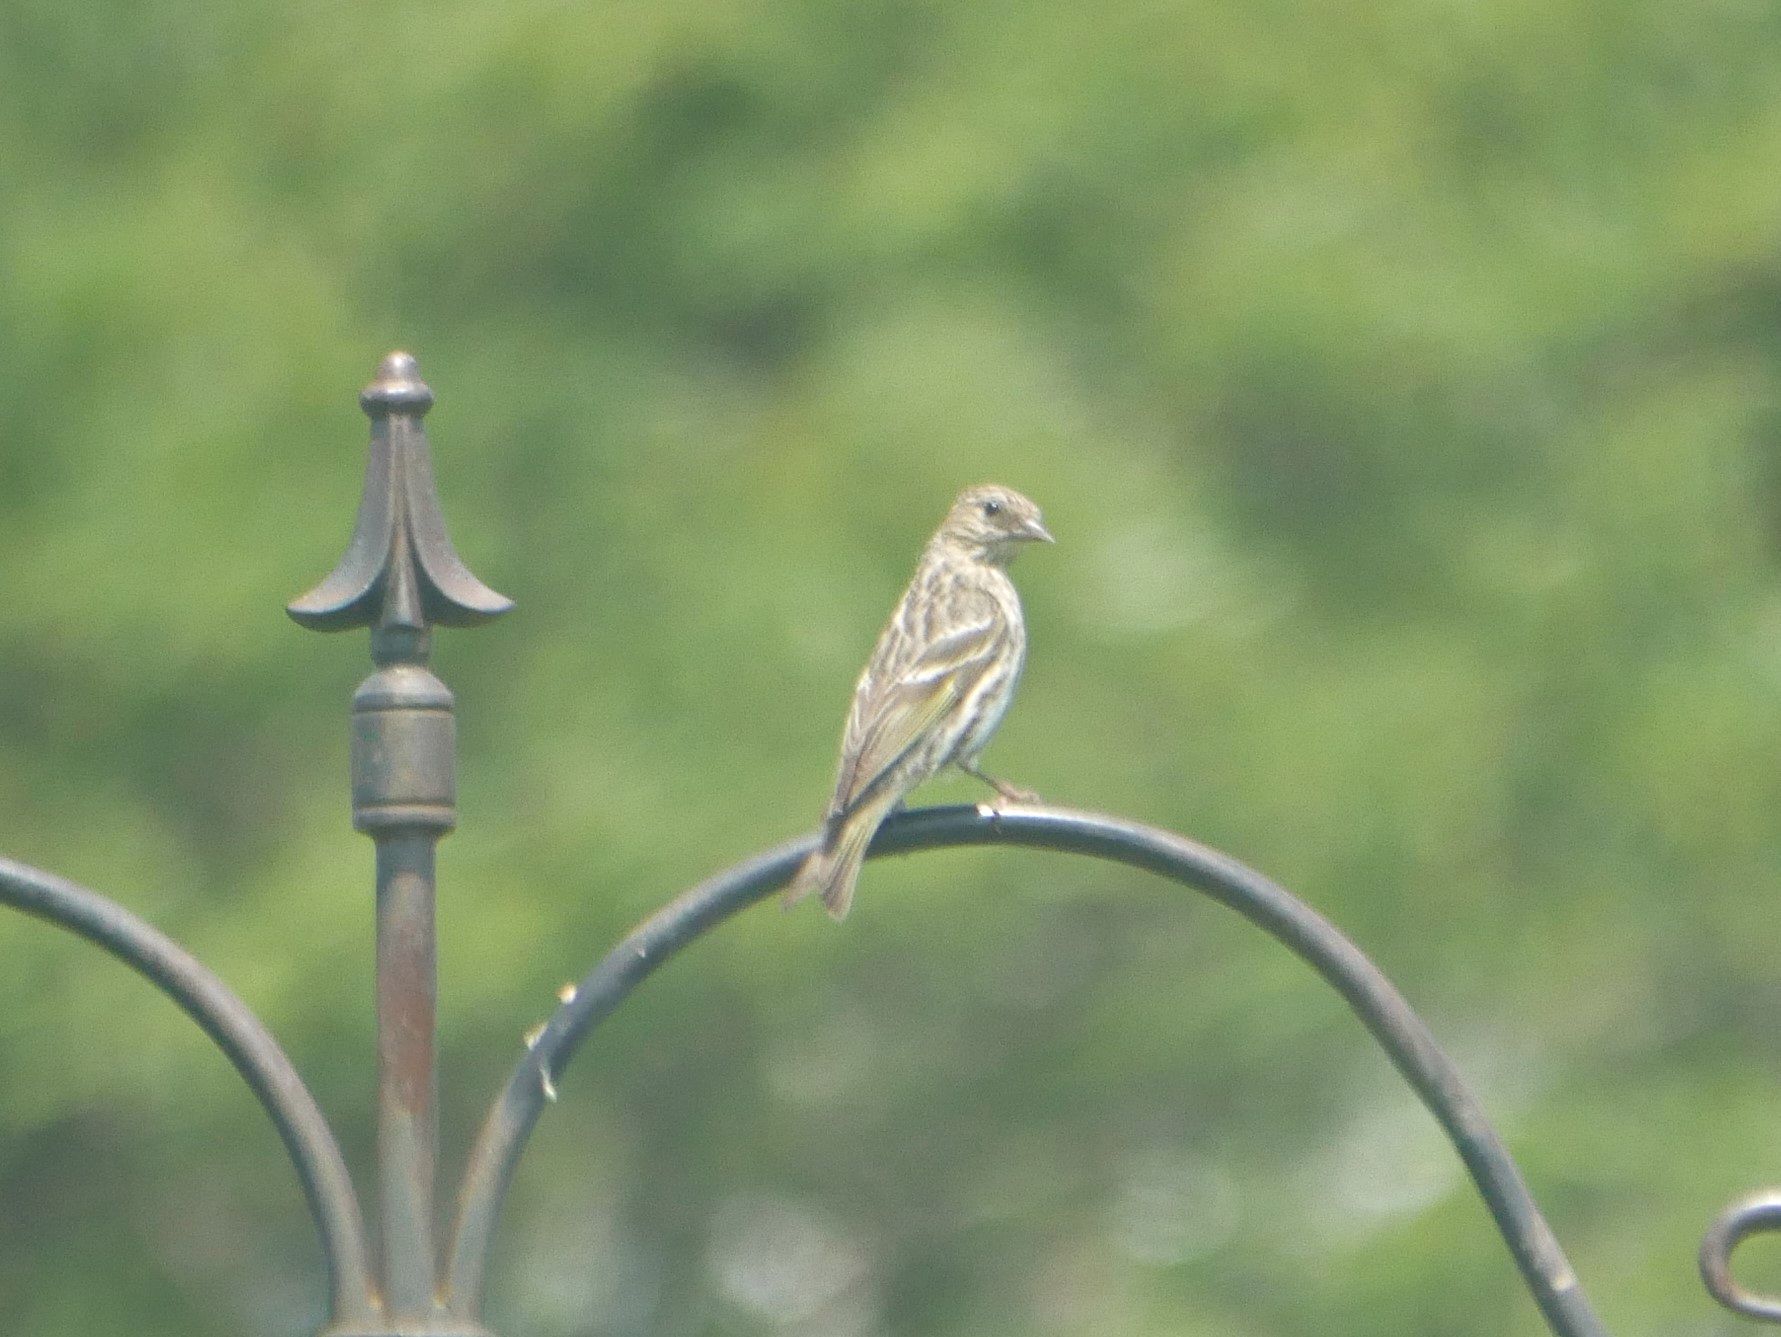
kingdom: Animalia
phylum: Chordata
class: Aves
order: Passeriformes
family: Fringillidae
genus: Spinus
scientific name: Spinus pinus
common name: Pine siskin
